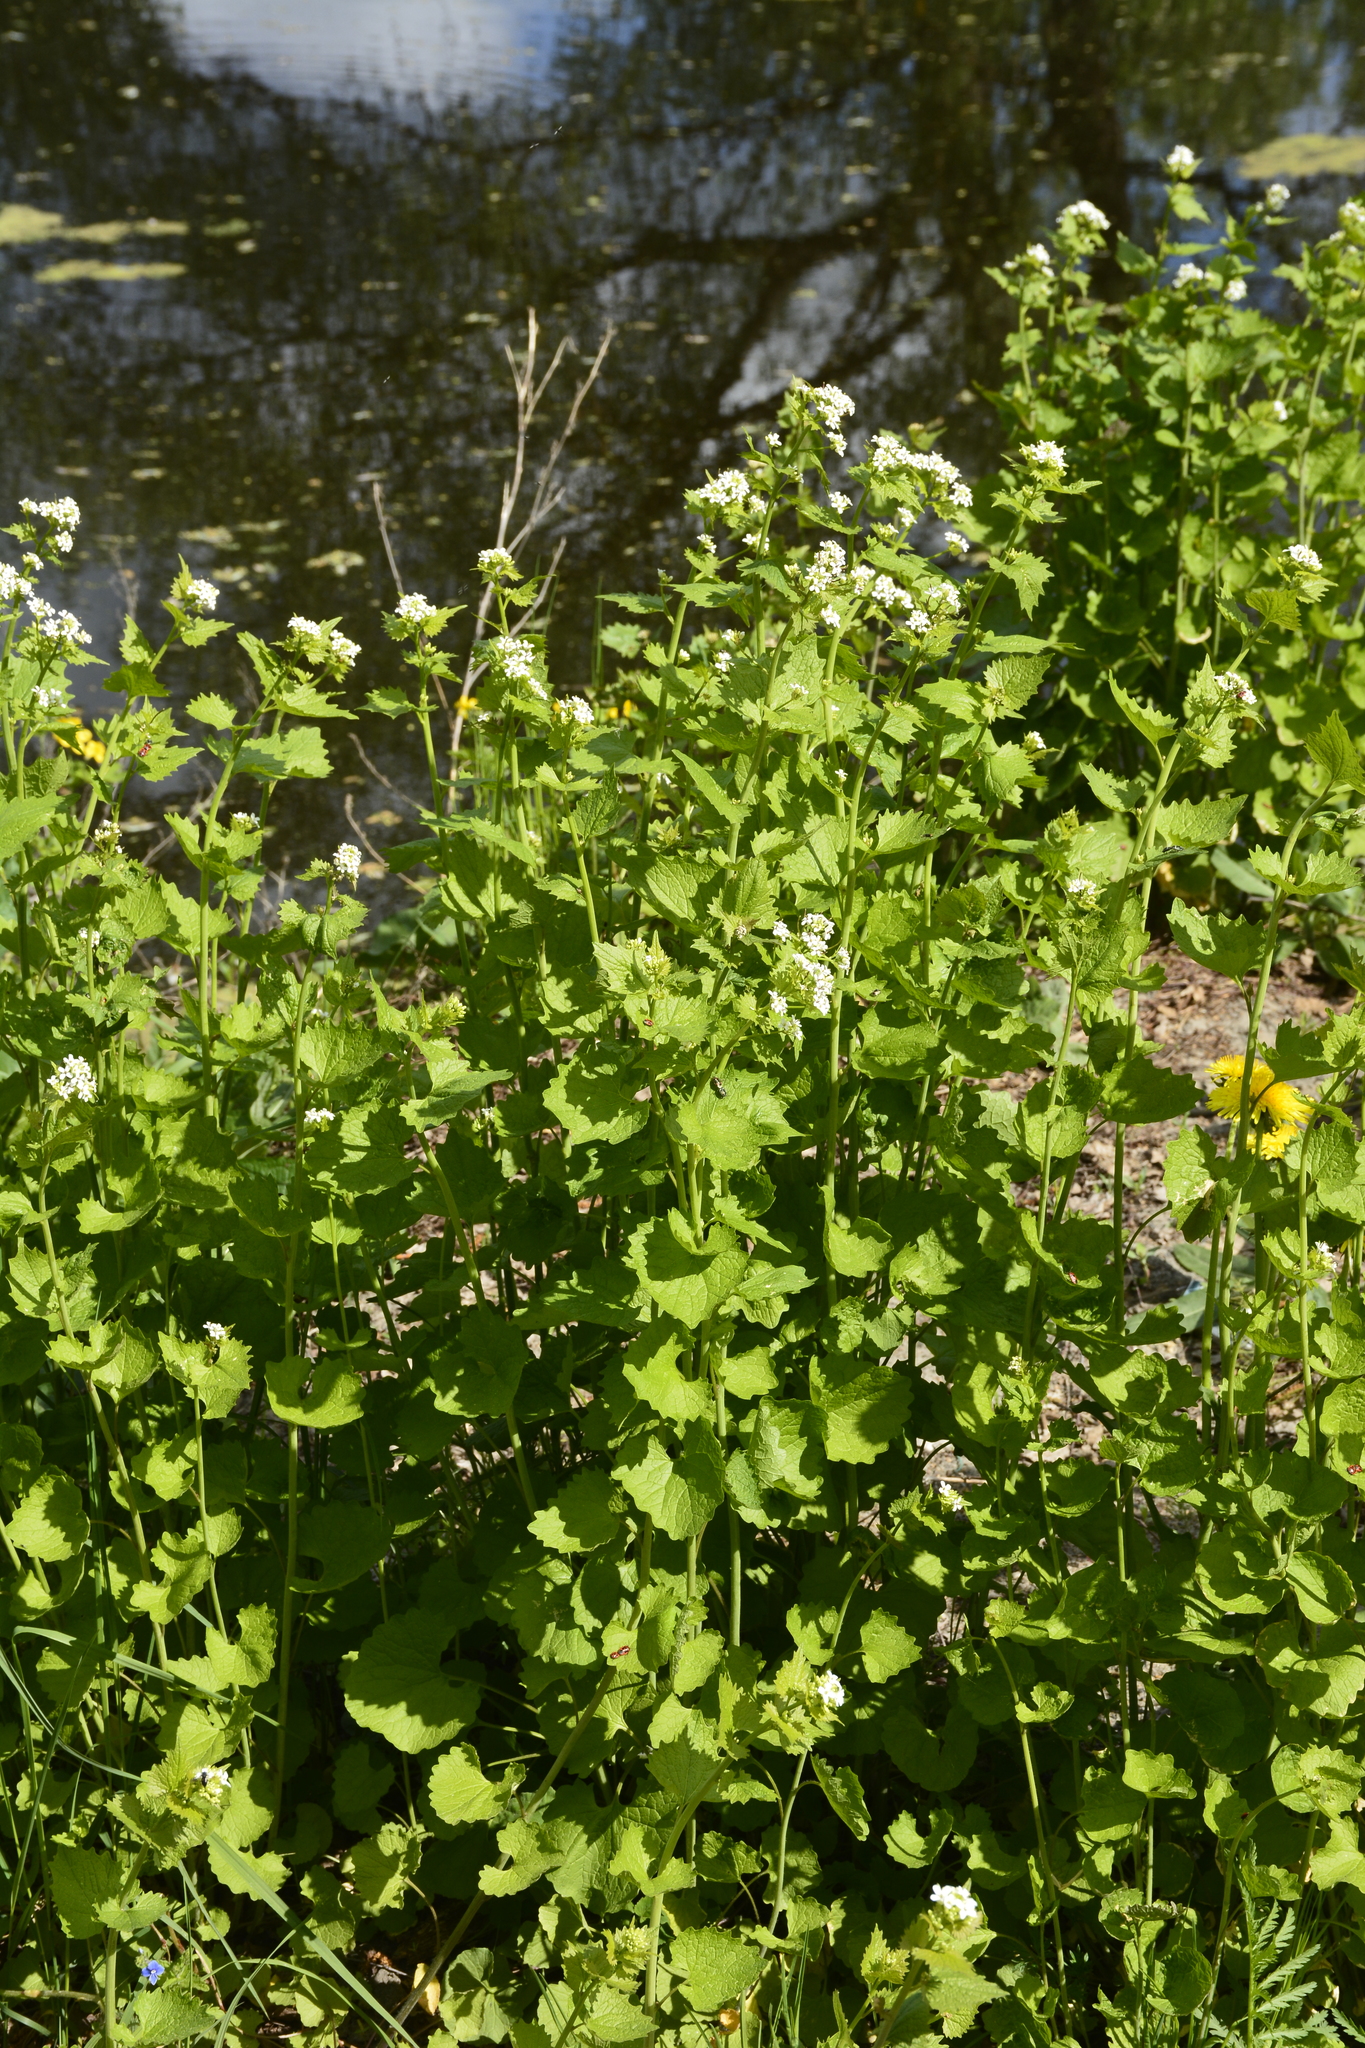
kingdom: Plantae
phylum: Tracheophyta
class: Magnoliopsida
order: Brassicales
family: Brassicaceae
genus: Alliaria
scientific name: Alliaria petiolata
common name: Garlic mustard
